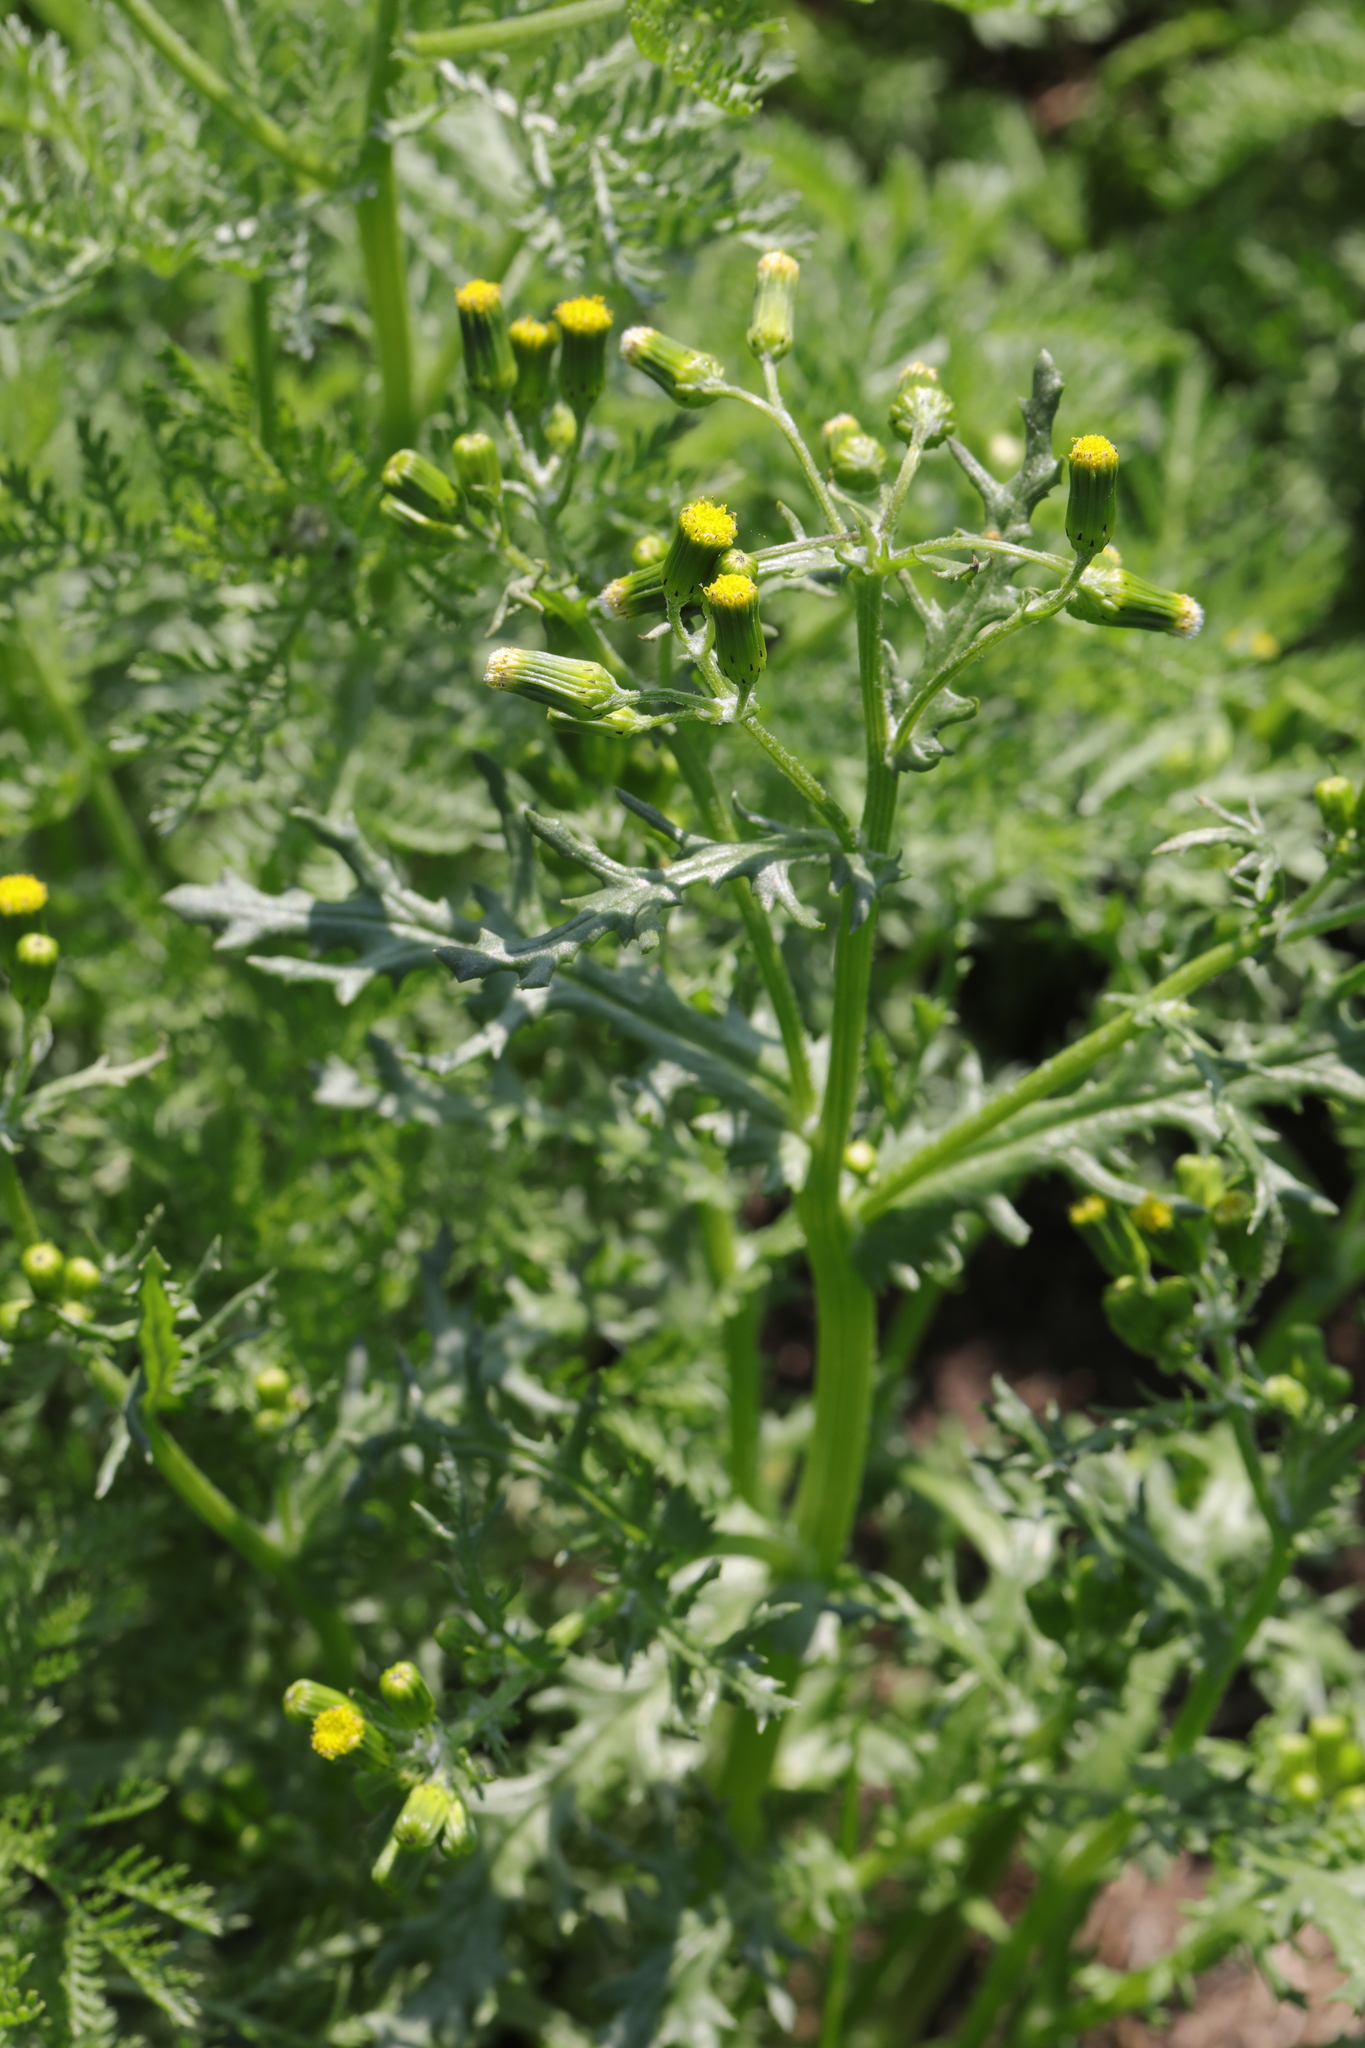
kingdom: Plantae
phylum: Tracheophyta
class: Magnoliopsida
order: Asterales
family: Asteraceae
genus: Senecio
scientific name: Senecio vulgaris
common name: Old-man-in-the-spring
